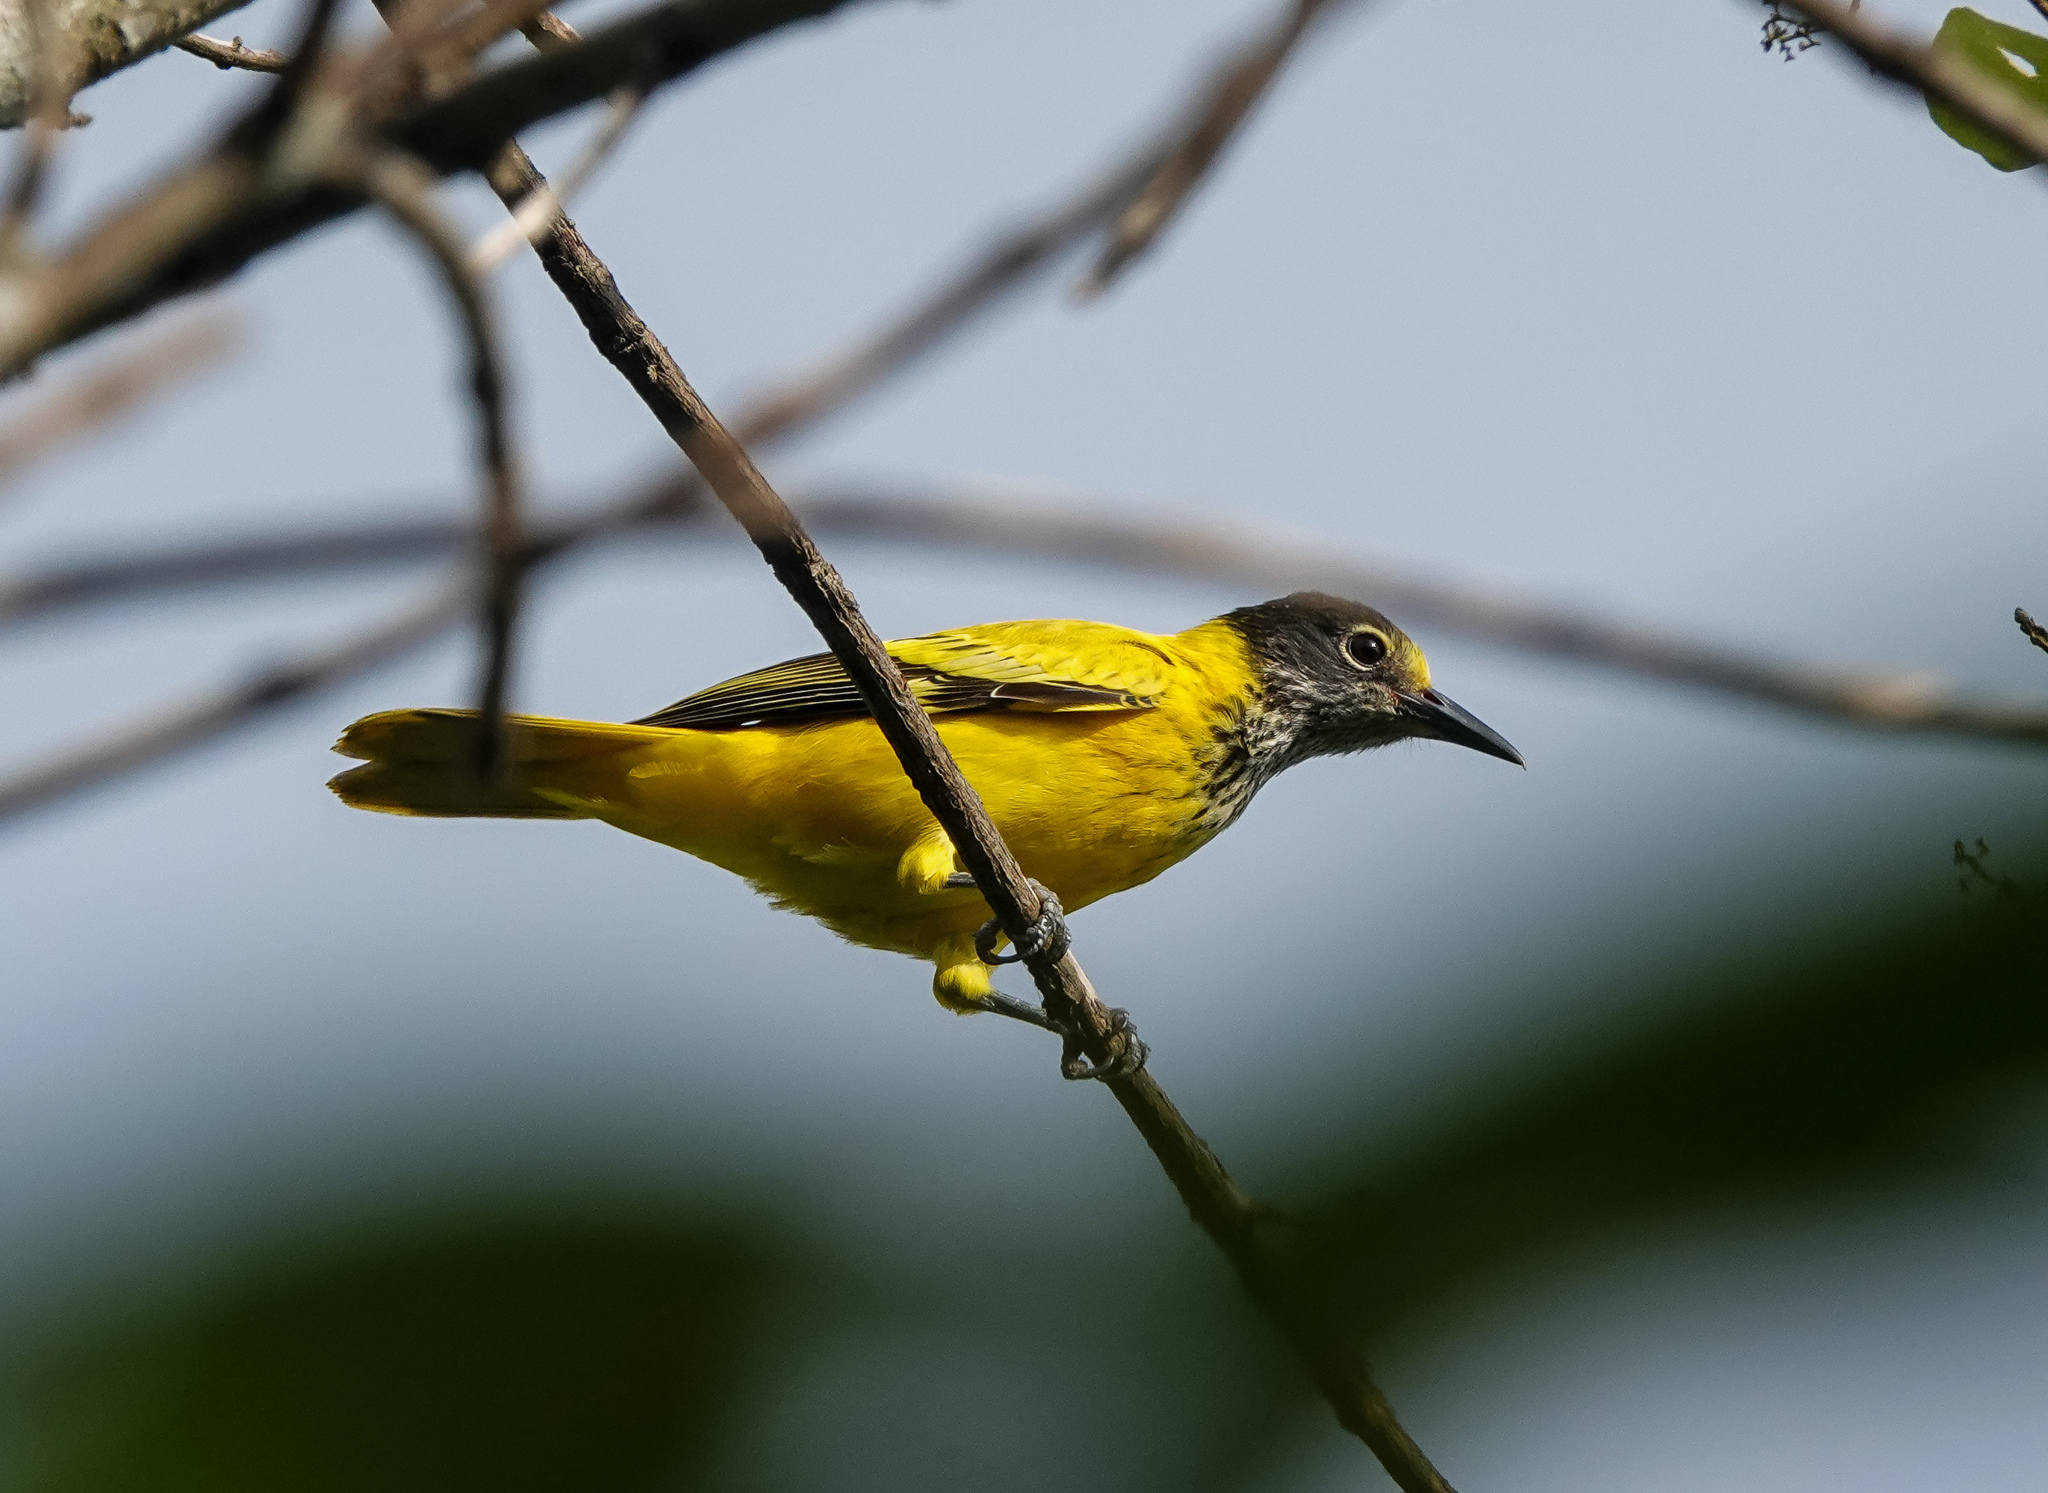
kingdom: Animalia
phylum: Chordata
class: Aves
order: Passeriformes
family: Oriolidae
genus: Oriolus
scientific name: Oriolus xanthornus
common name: Black-hooded oriole
